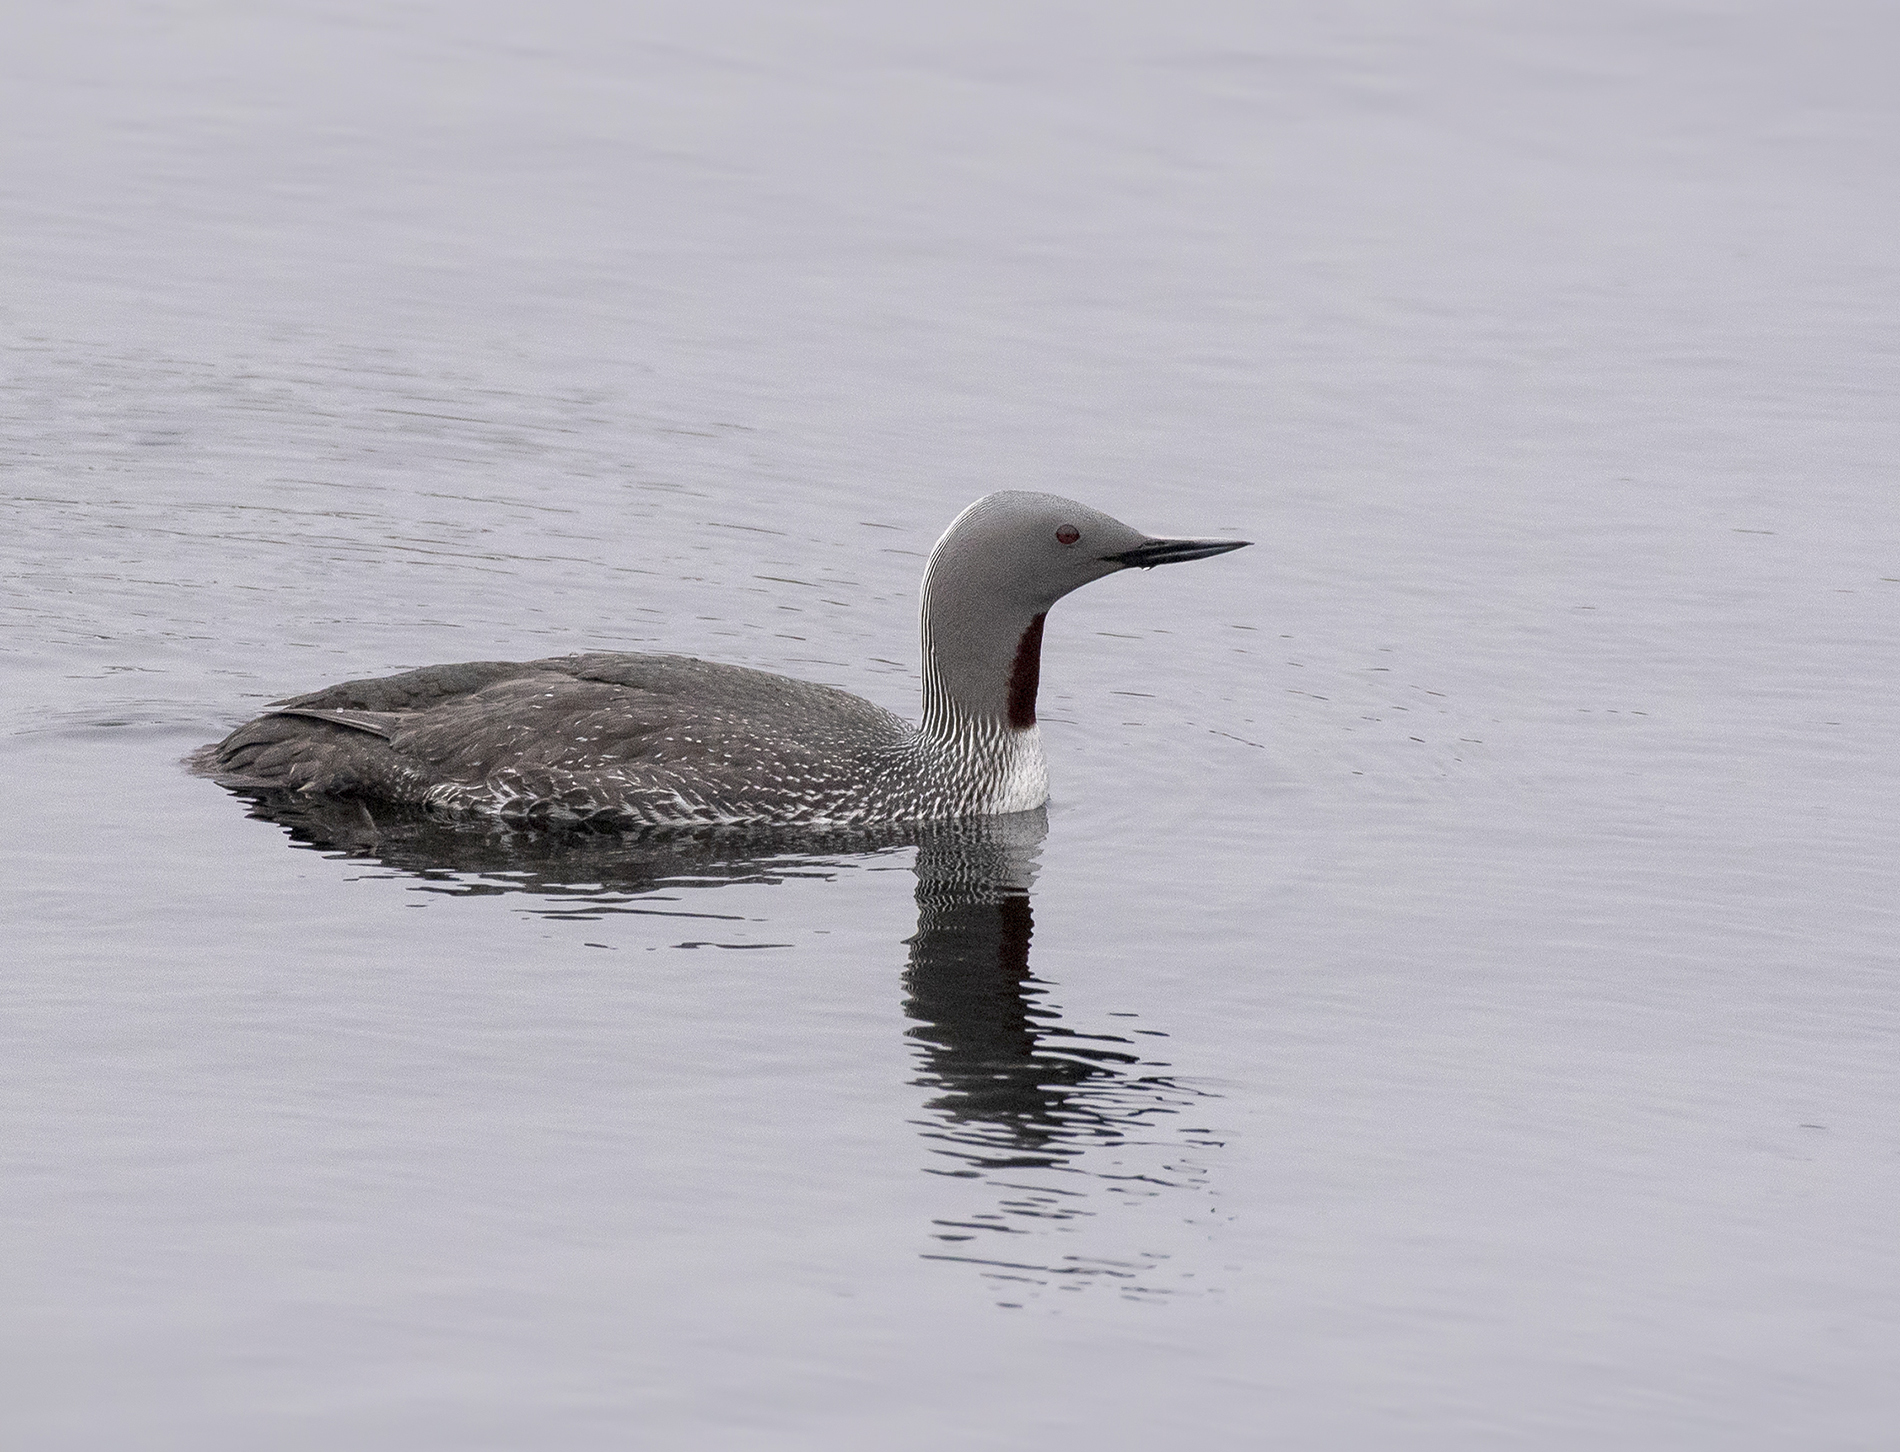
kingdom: Animalia
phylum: Chordata
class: Aves
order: Gaviiformes
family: Gaviidae
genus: Gavia
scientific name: Gavia stellata
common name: Red-throated loon
